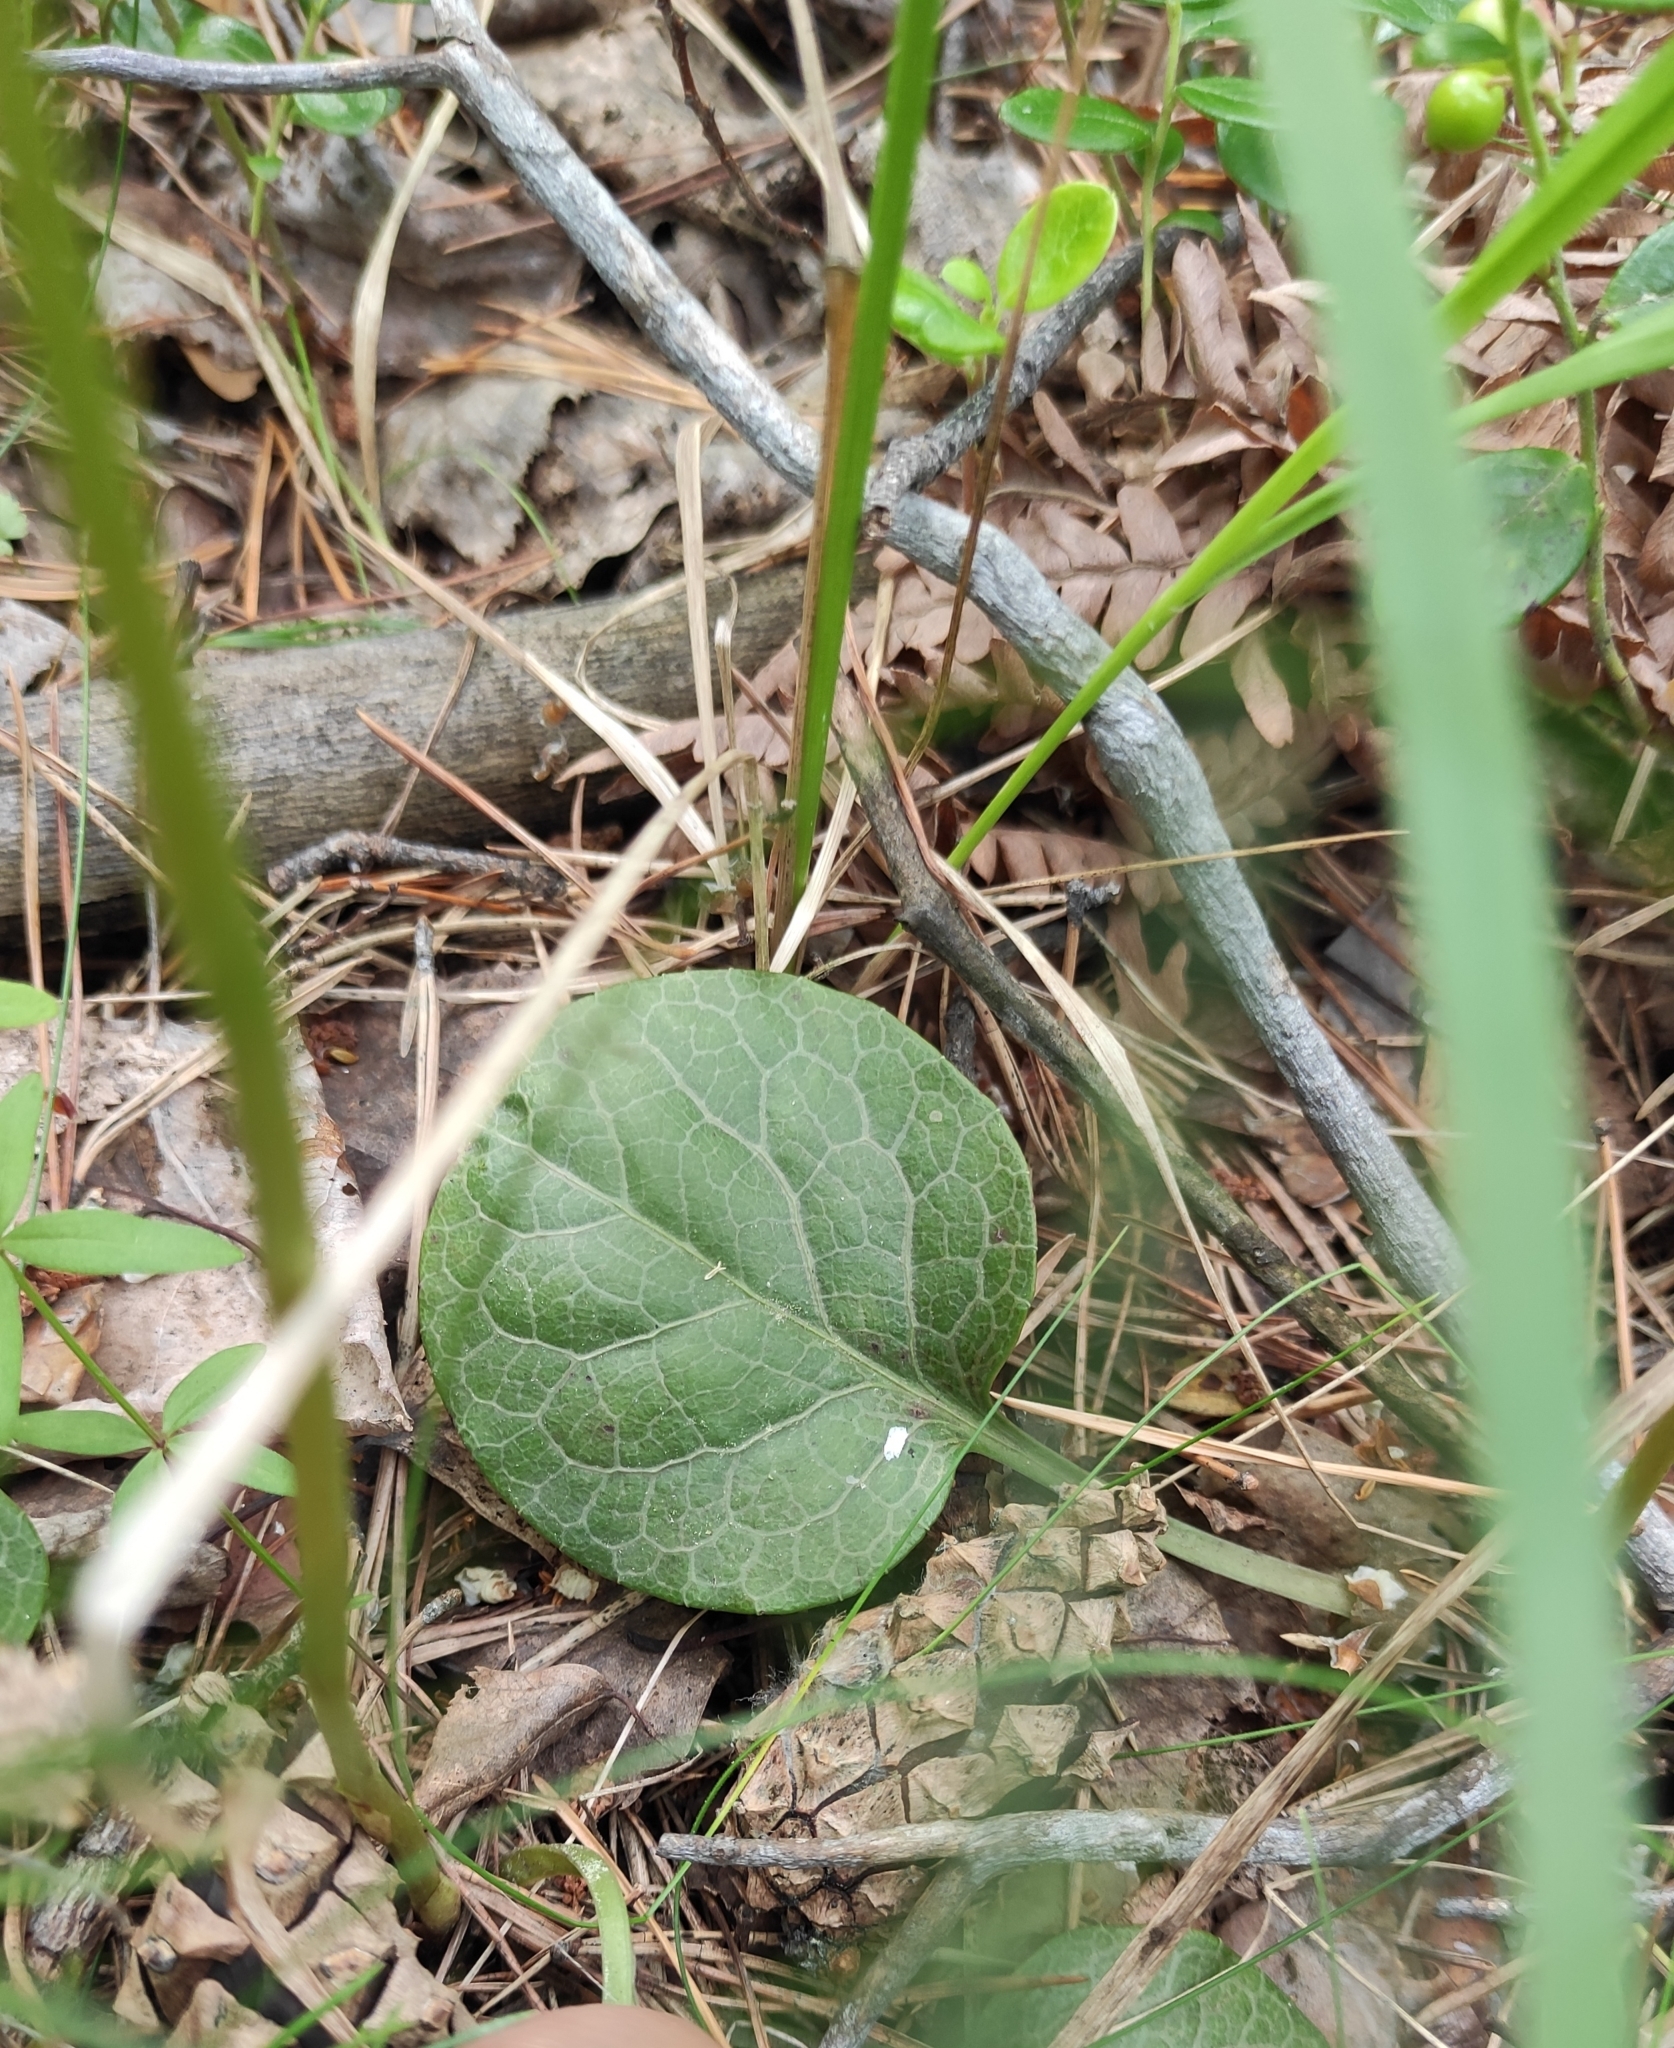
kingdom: Plantae
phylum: Tracheophyta
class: Magnoliopsida
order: Ericales
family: Ericaceae
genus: Pyrola
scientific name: Pyrola rotundifolia
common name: Round-leaved wintergreen
